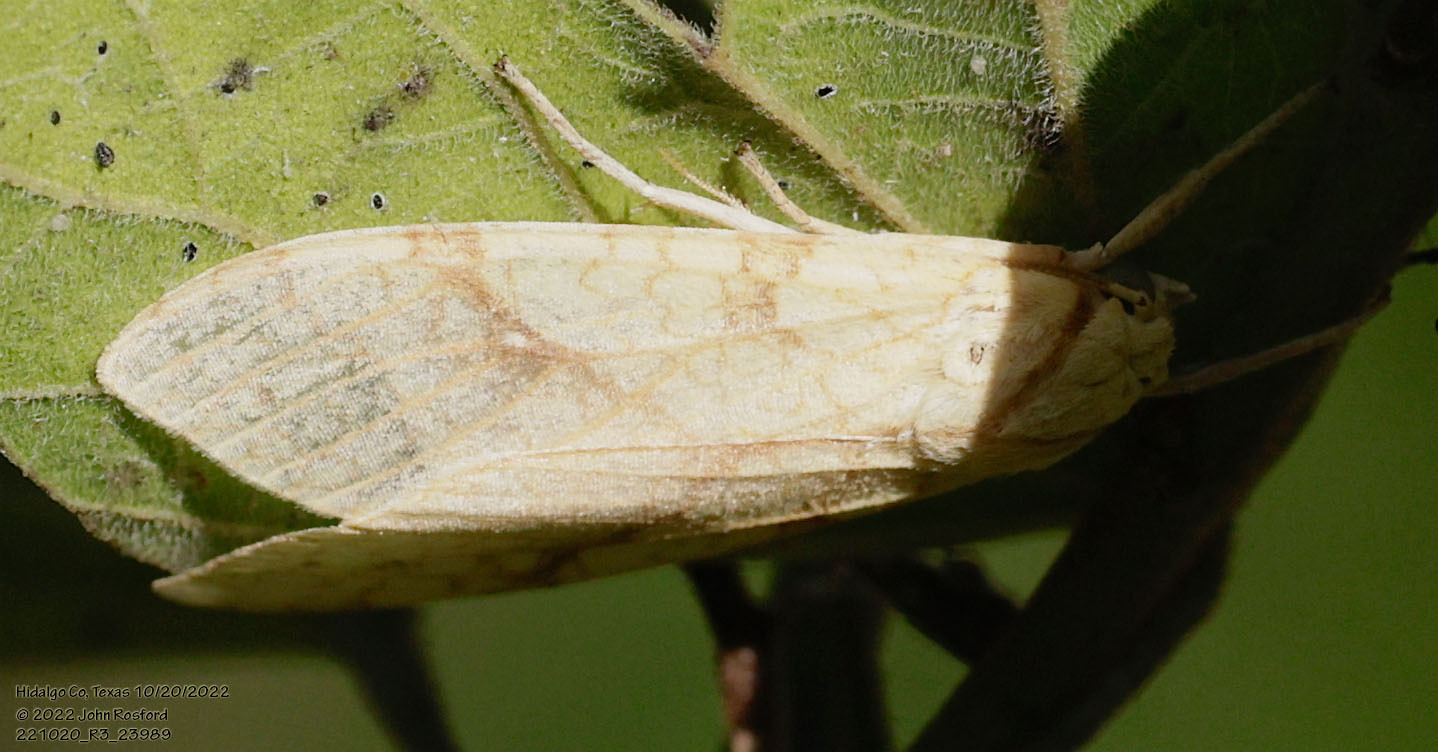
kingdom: Animalia
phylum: Arthropoda
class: Insecta
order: Lepidoptera
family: Erebidae
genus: Lophocampa
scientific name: Lophocampa annulosa
